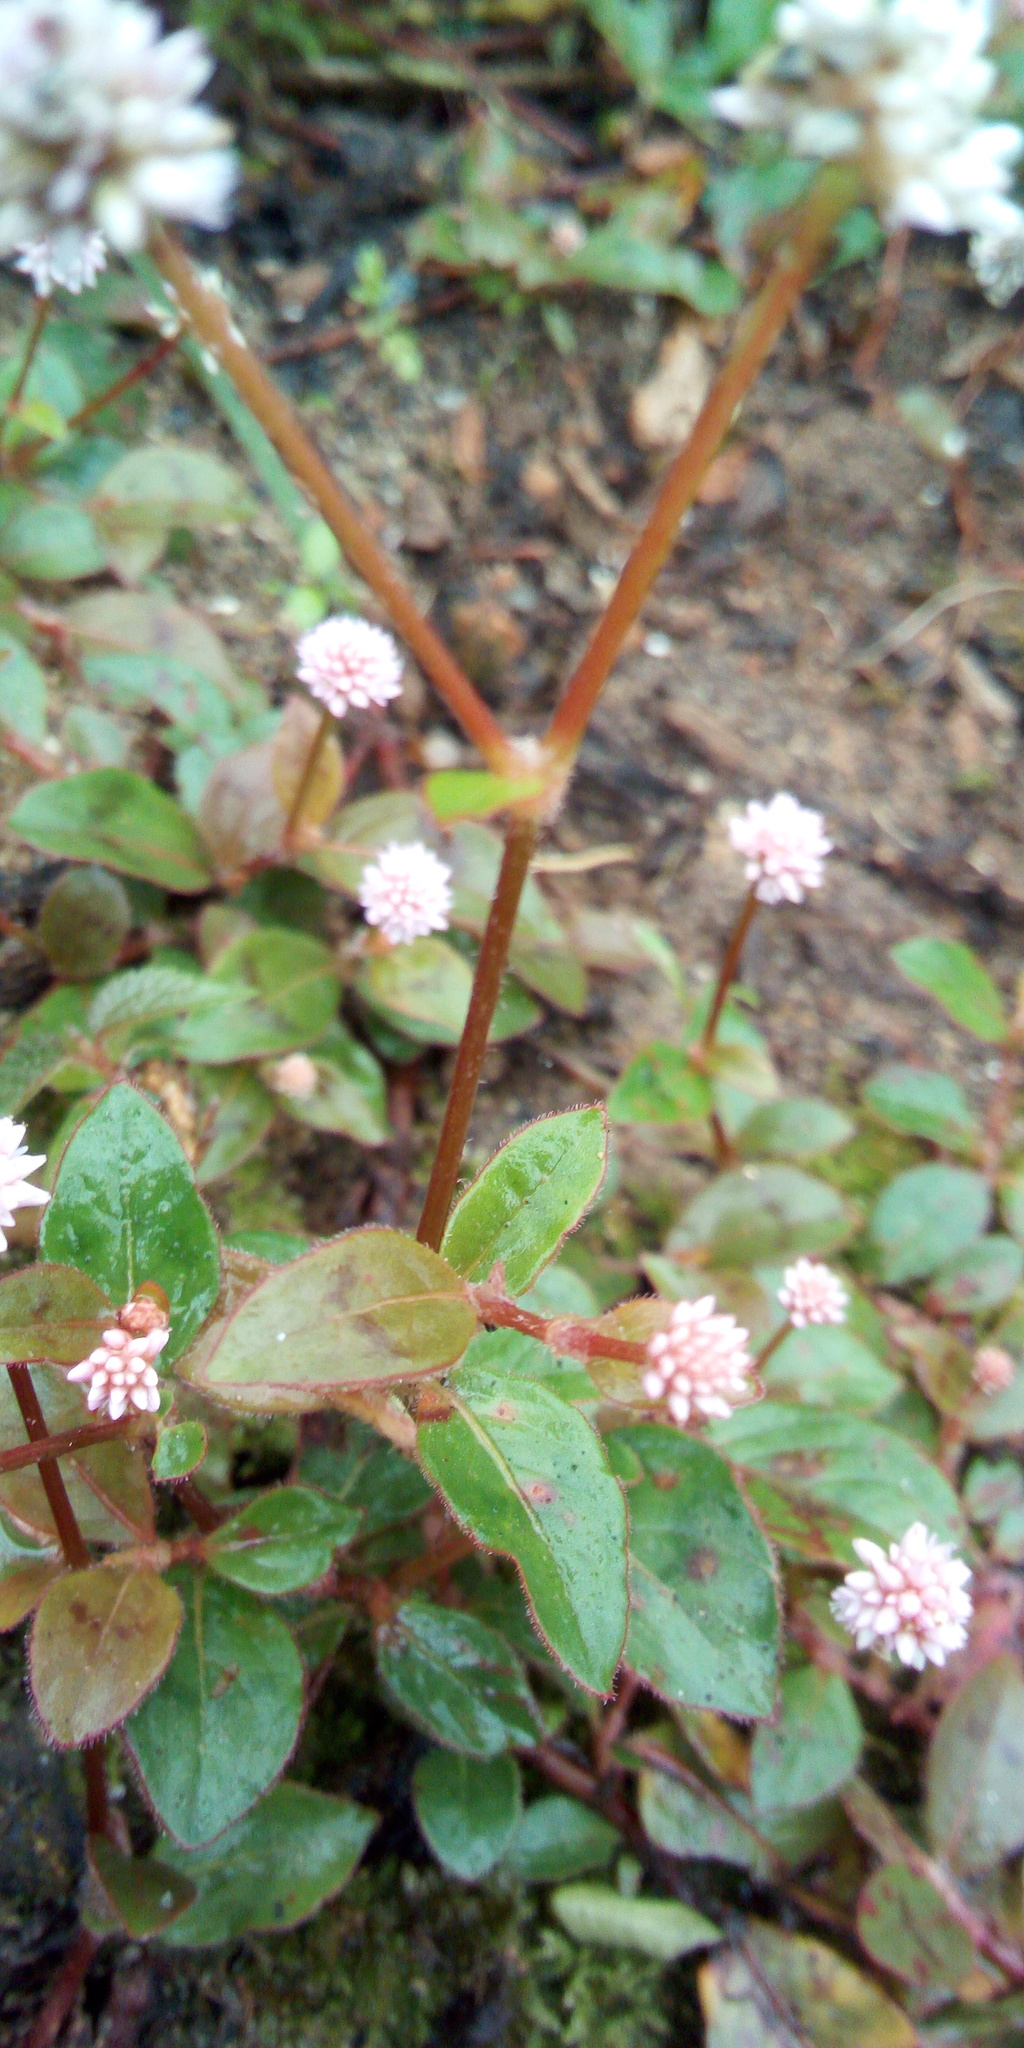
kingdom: Plantae
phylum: Tracheophyta
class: Magnoliopsida
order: Caryophyllales
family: Polygonaceae
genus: Persicaria
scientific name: Persicaria capitata
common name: Pinkhead smartweed
